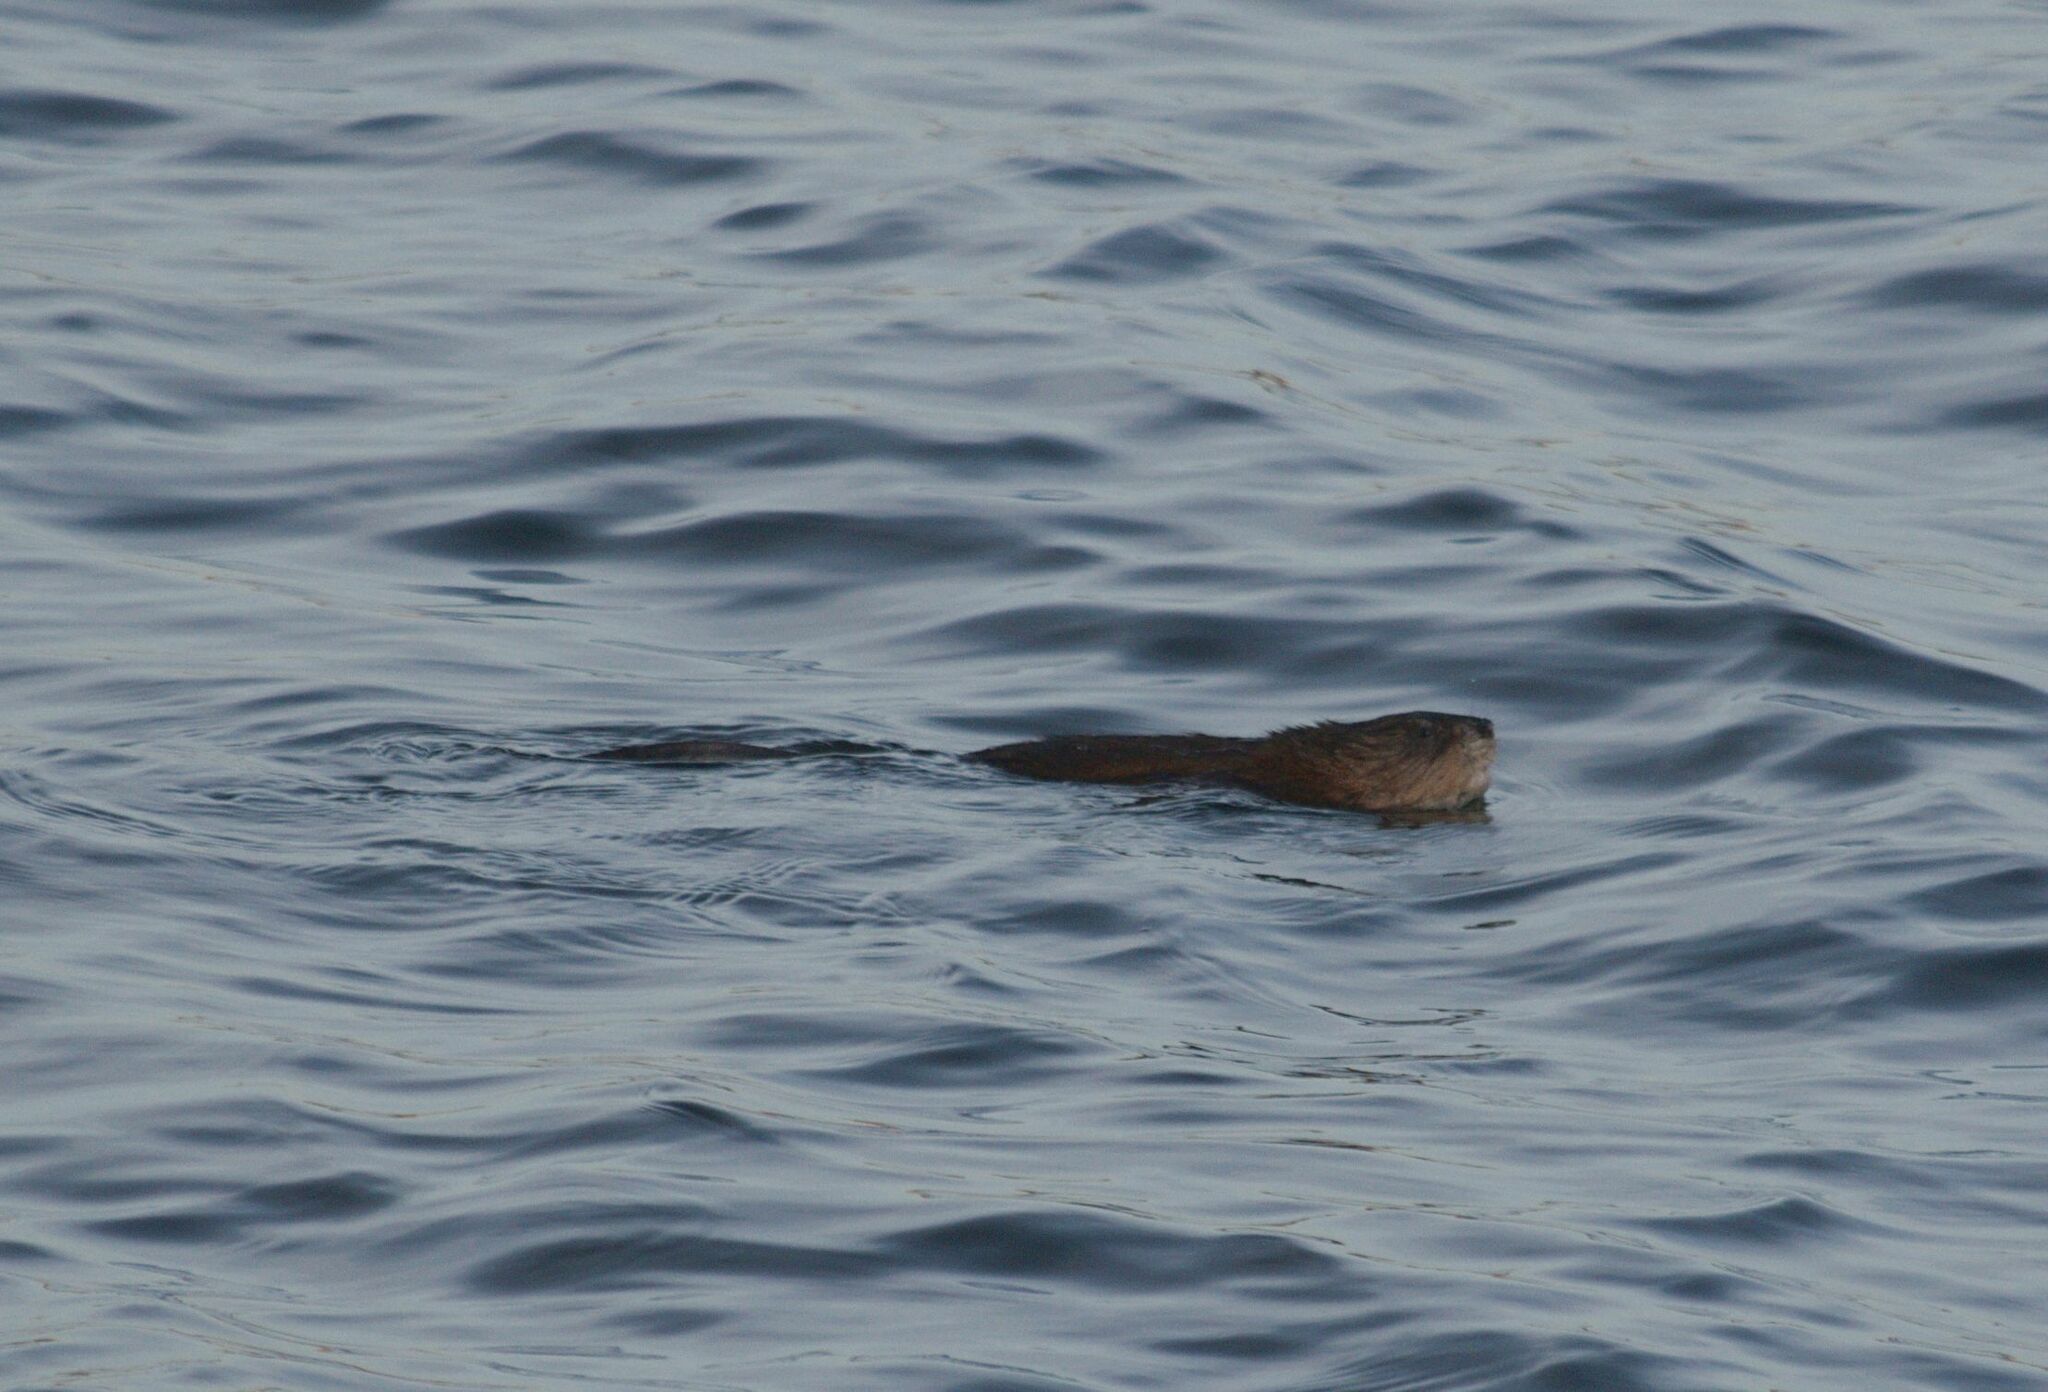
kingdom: Animalia
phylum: Chordata
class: Mammalia
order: Rodentia
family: Cricetidae
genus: Ondatra
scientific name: Ondatra zibethicus
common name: Muskrat
